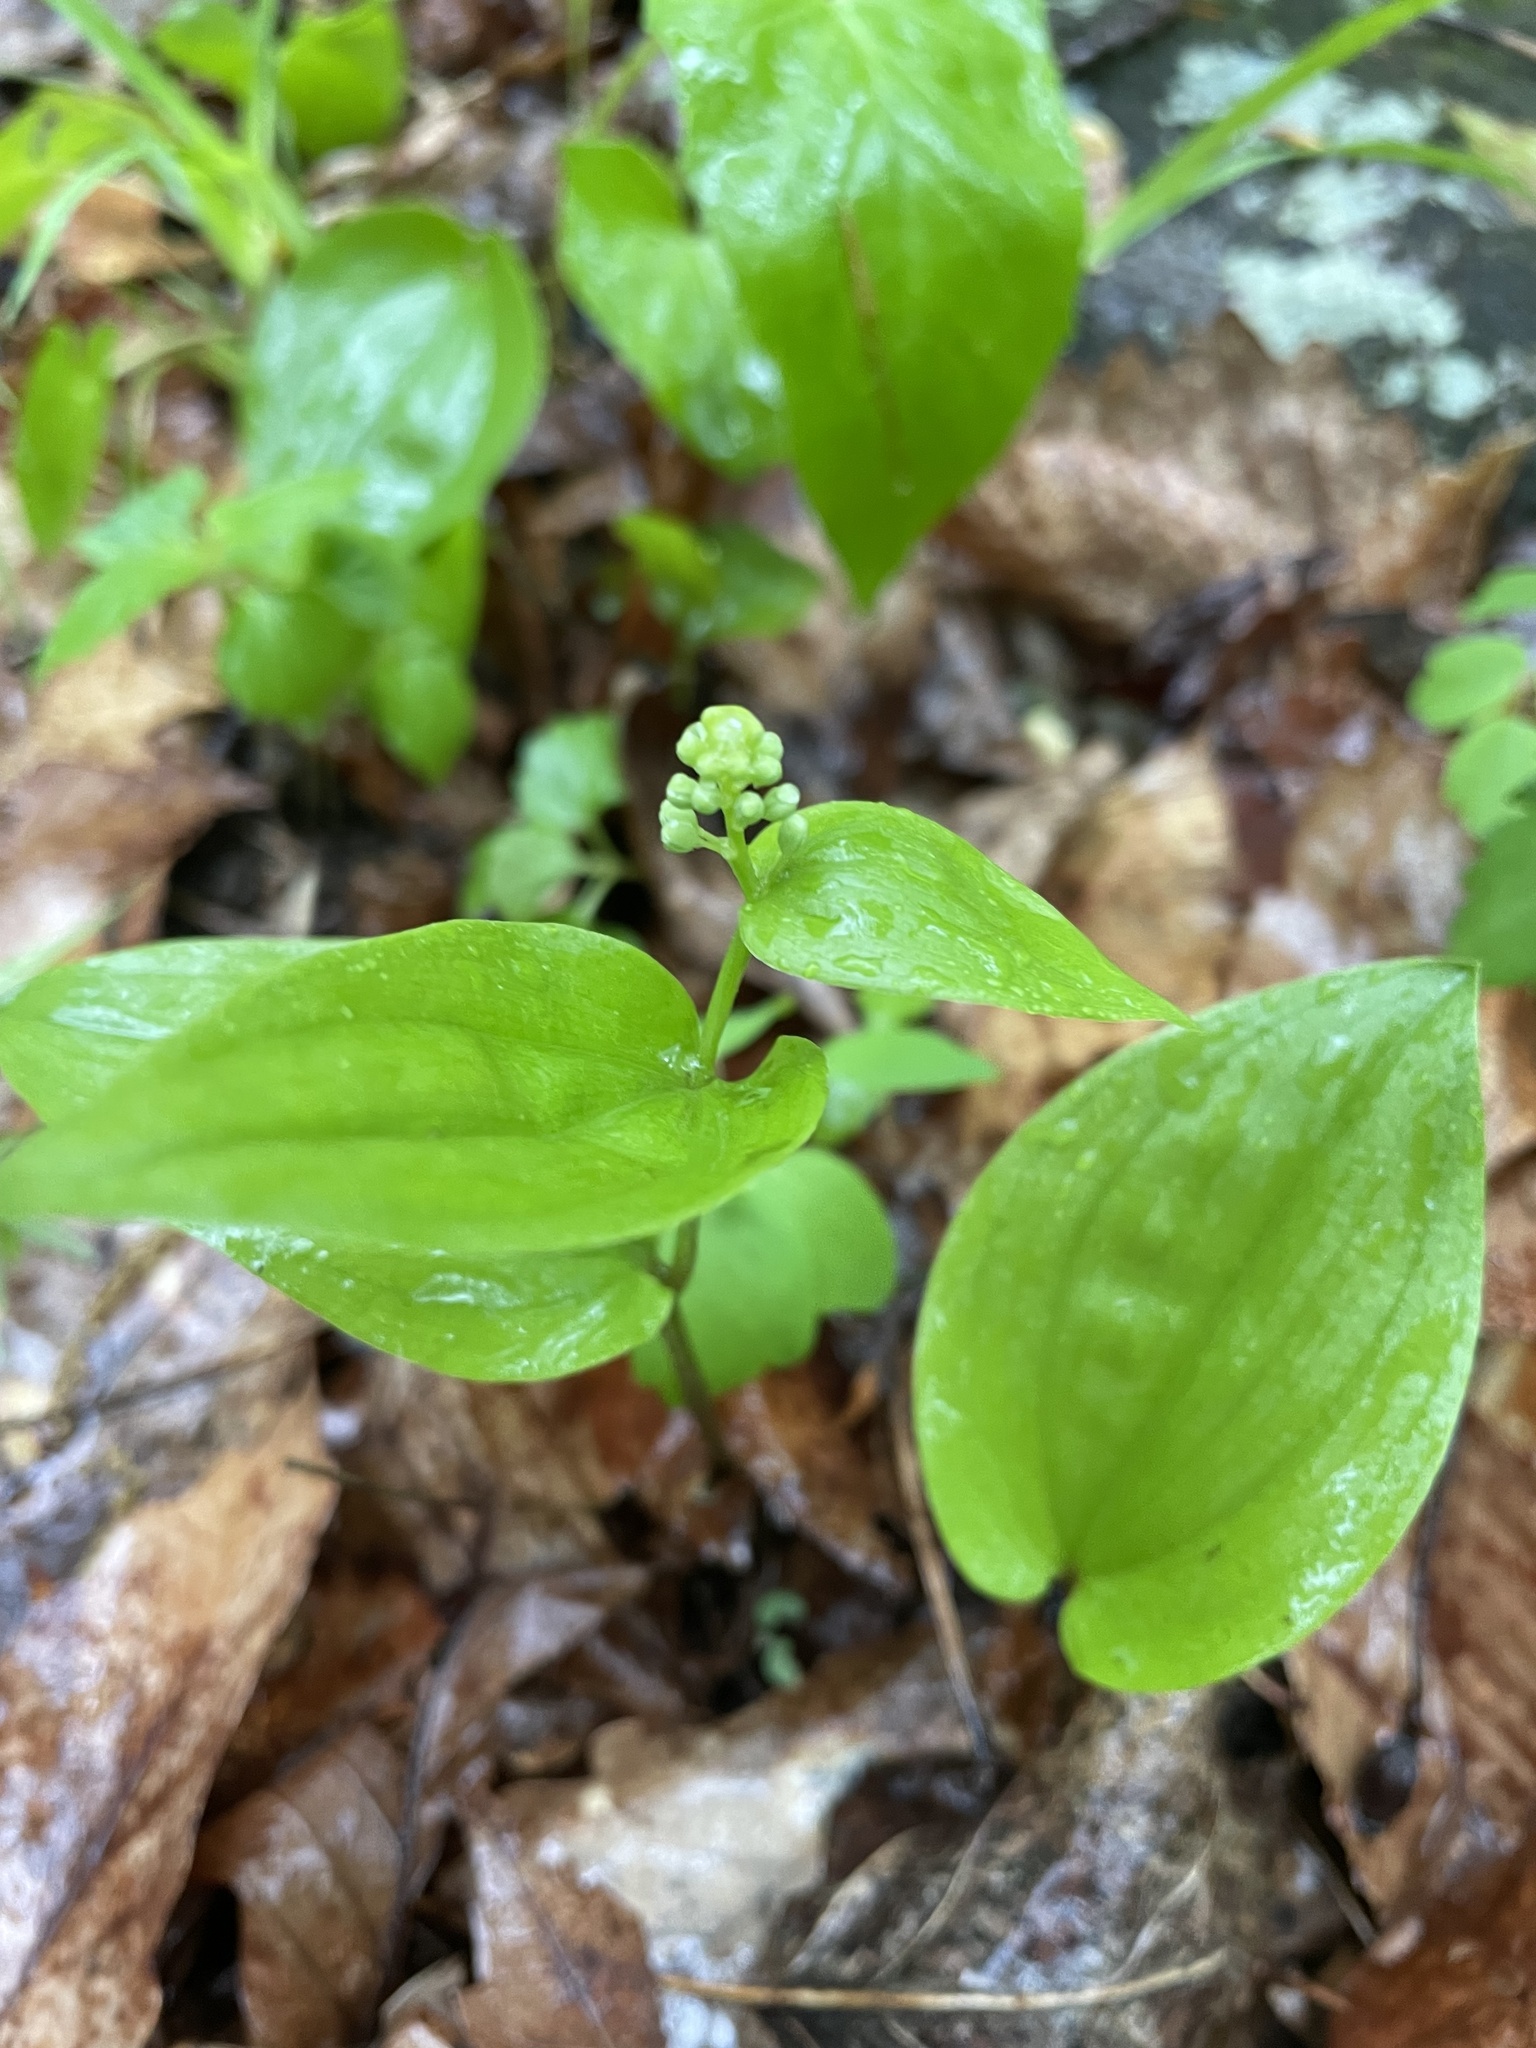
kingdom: Plantae
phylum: Tracheophyta
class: Liliopsida
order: Asparagales
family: Asparagaceae
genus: Maianthemum
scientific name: Maianthemum canadense
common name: False lily-of-the-valley
